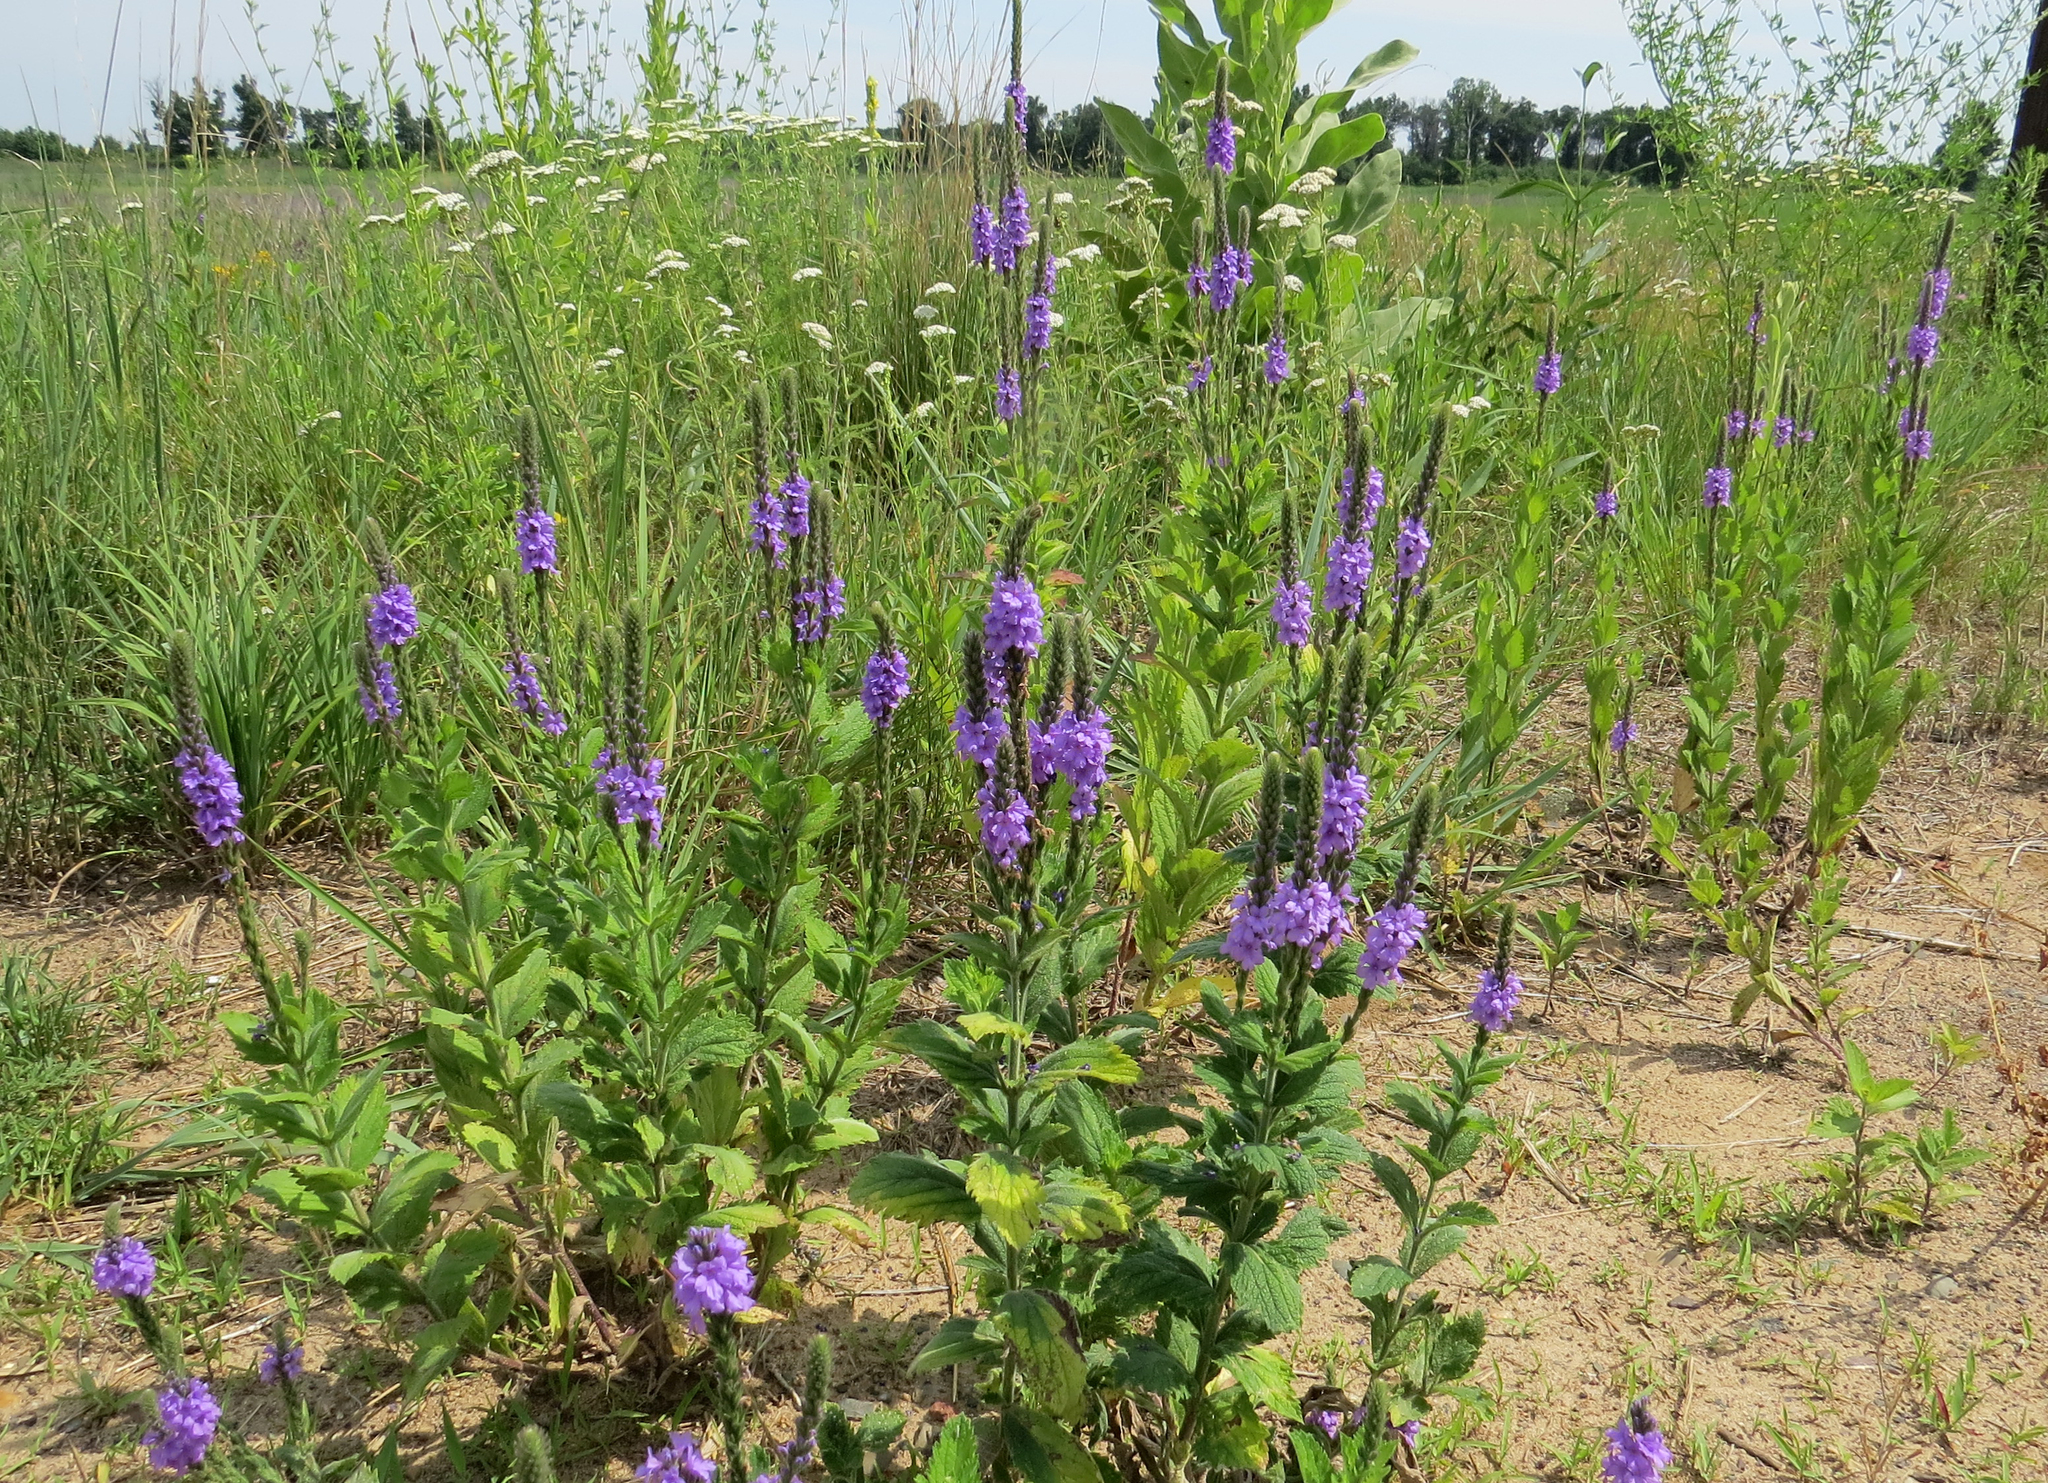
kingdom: Plantae
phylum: Tracheophyta
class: Magnoliopsida
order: Lamiales
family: Verbenaceae
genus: Verbena
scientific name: Verbena stricta
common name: Hoary vervain
